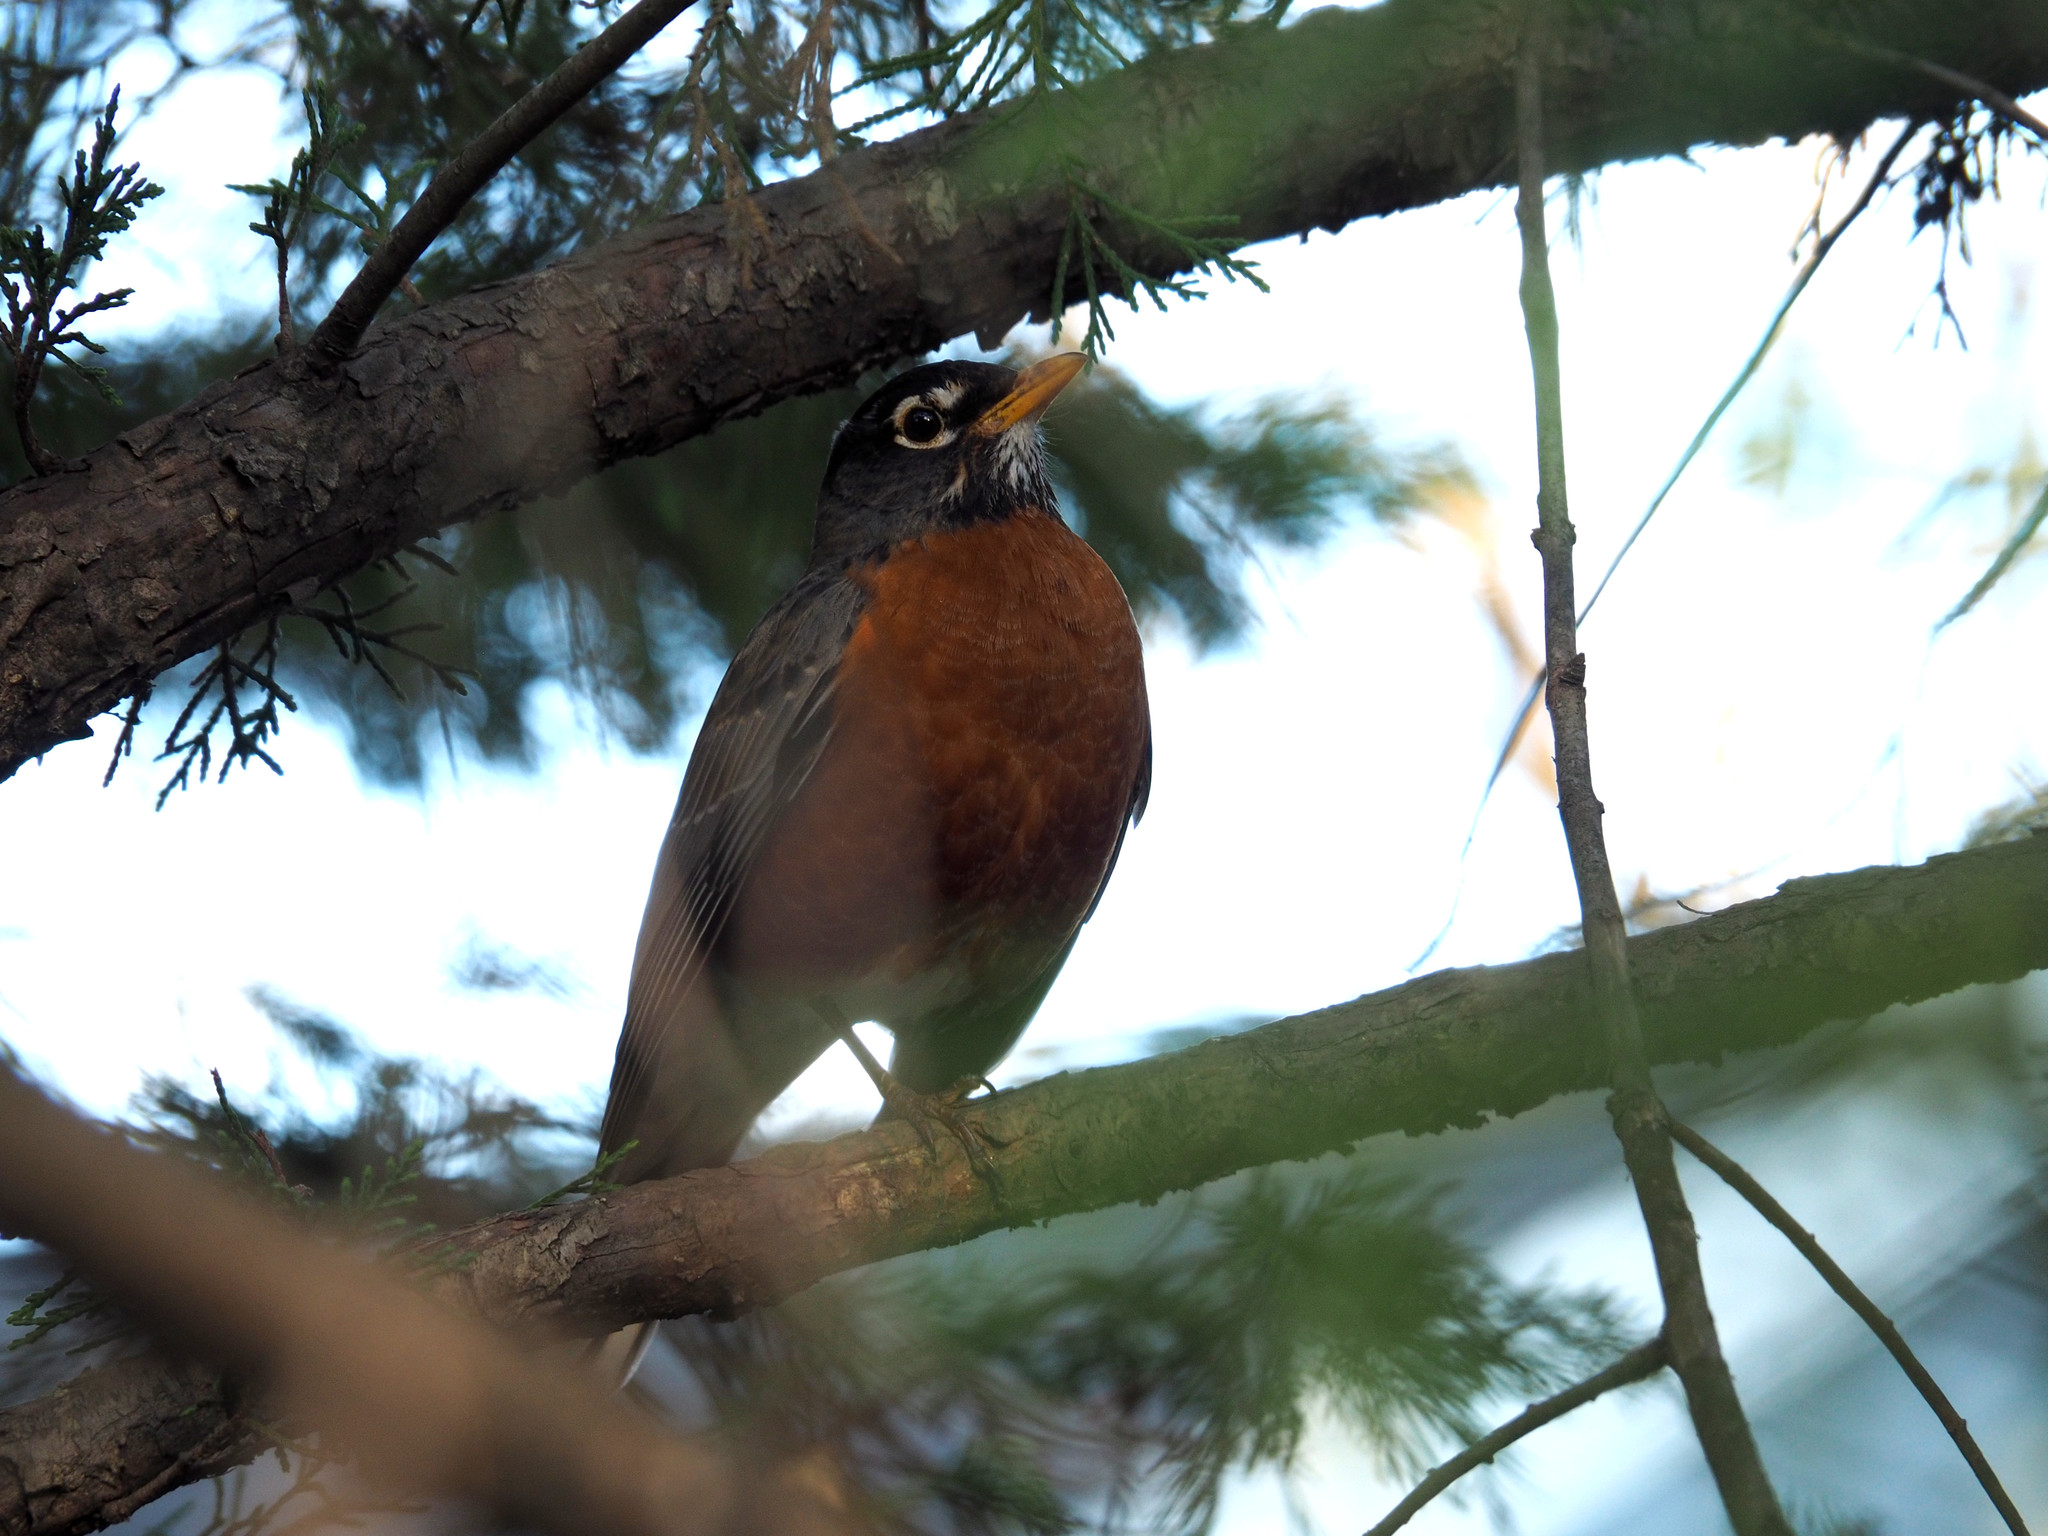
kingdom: Animalia
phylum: Chordata
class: Aves
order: Passeriformes
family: Turdidae
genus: Turdus
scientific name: Turdus migratorius
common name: American robin
